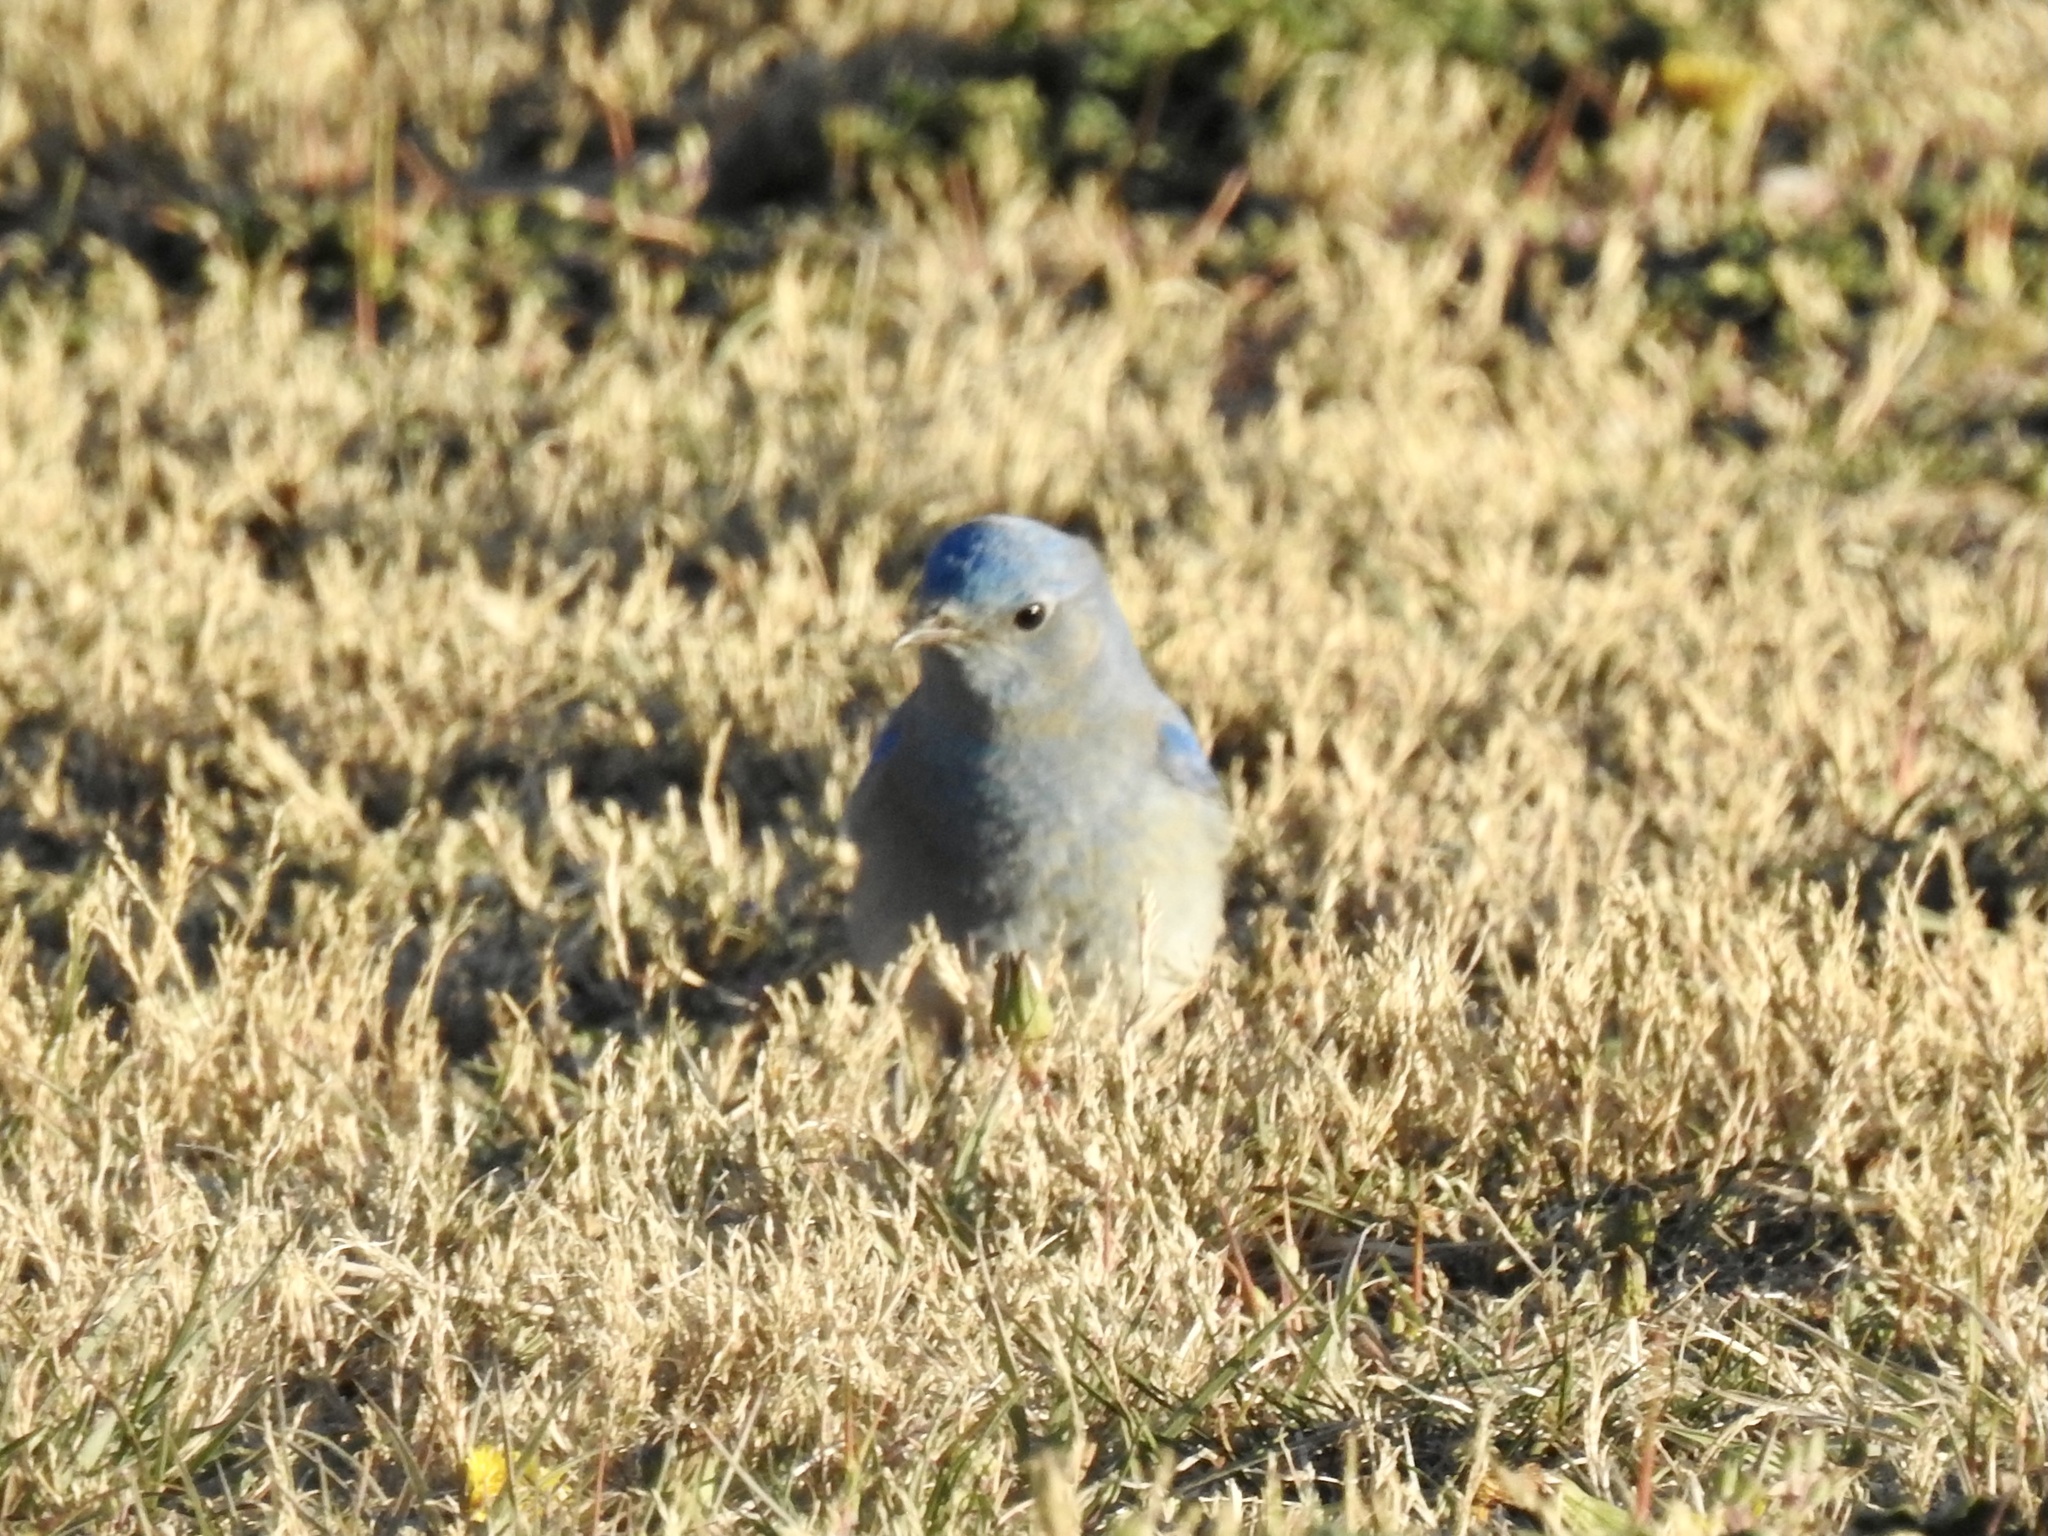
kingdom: Animalia
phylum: Chordata
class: Aves
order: Passeriformes
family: Turdidae
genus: Sialia
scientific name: Sialia currucoides
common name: Mountain bluebird
